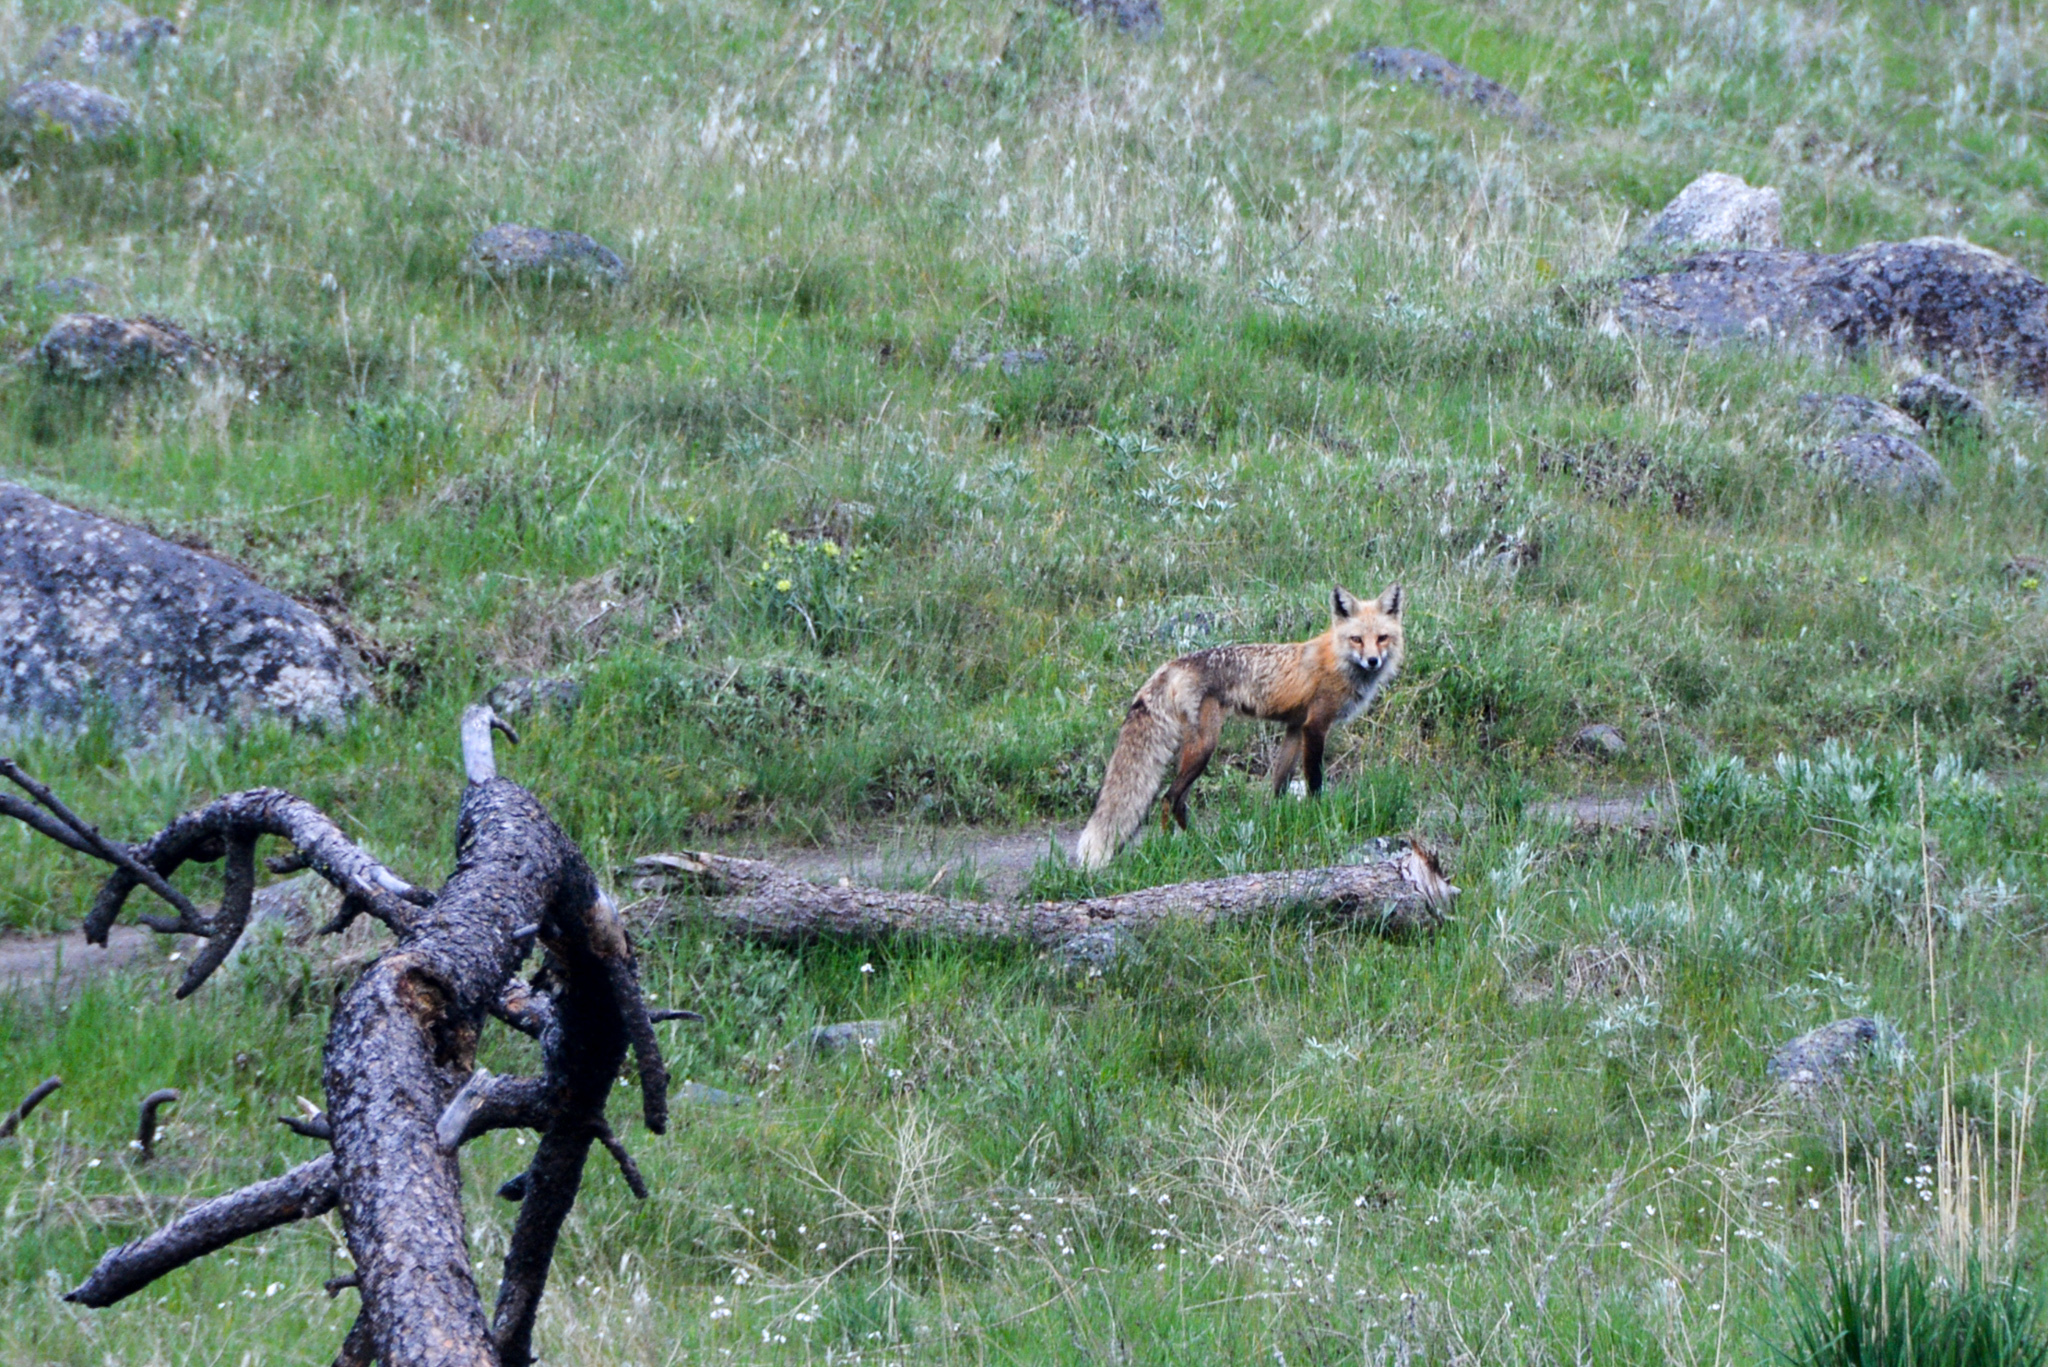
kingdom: Animalia
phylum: Chordata
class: Mammalia
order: Carnivora
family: Canidae
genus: Vulpes
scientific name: Vulpes vulpes
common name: Red fox
